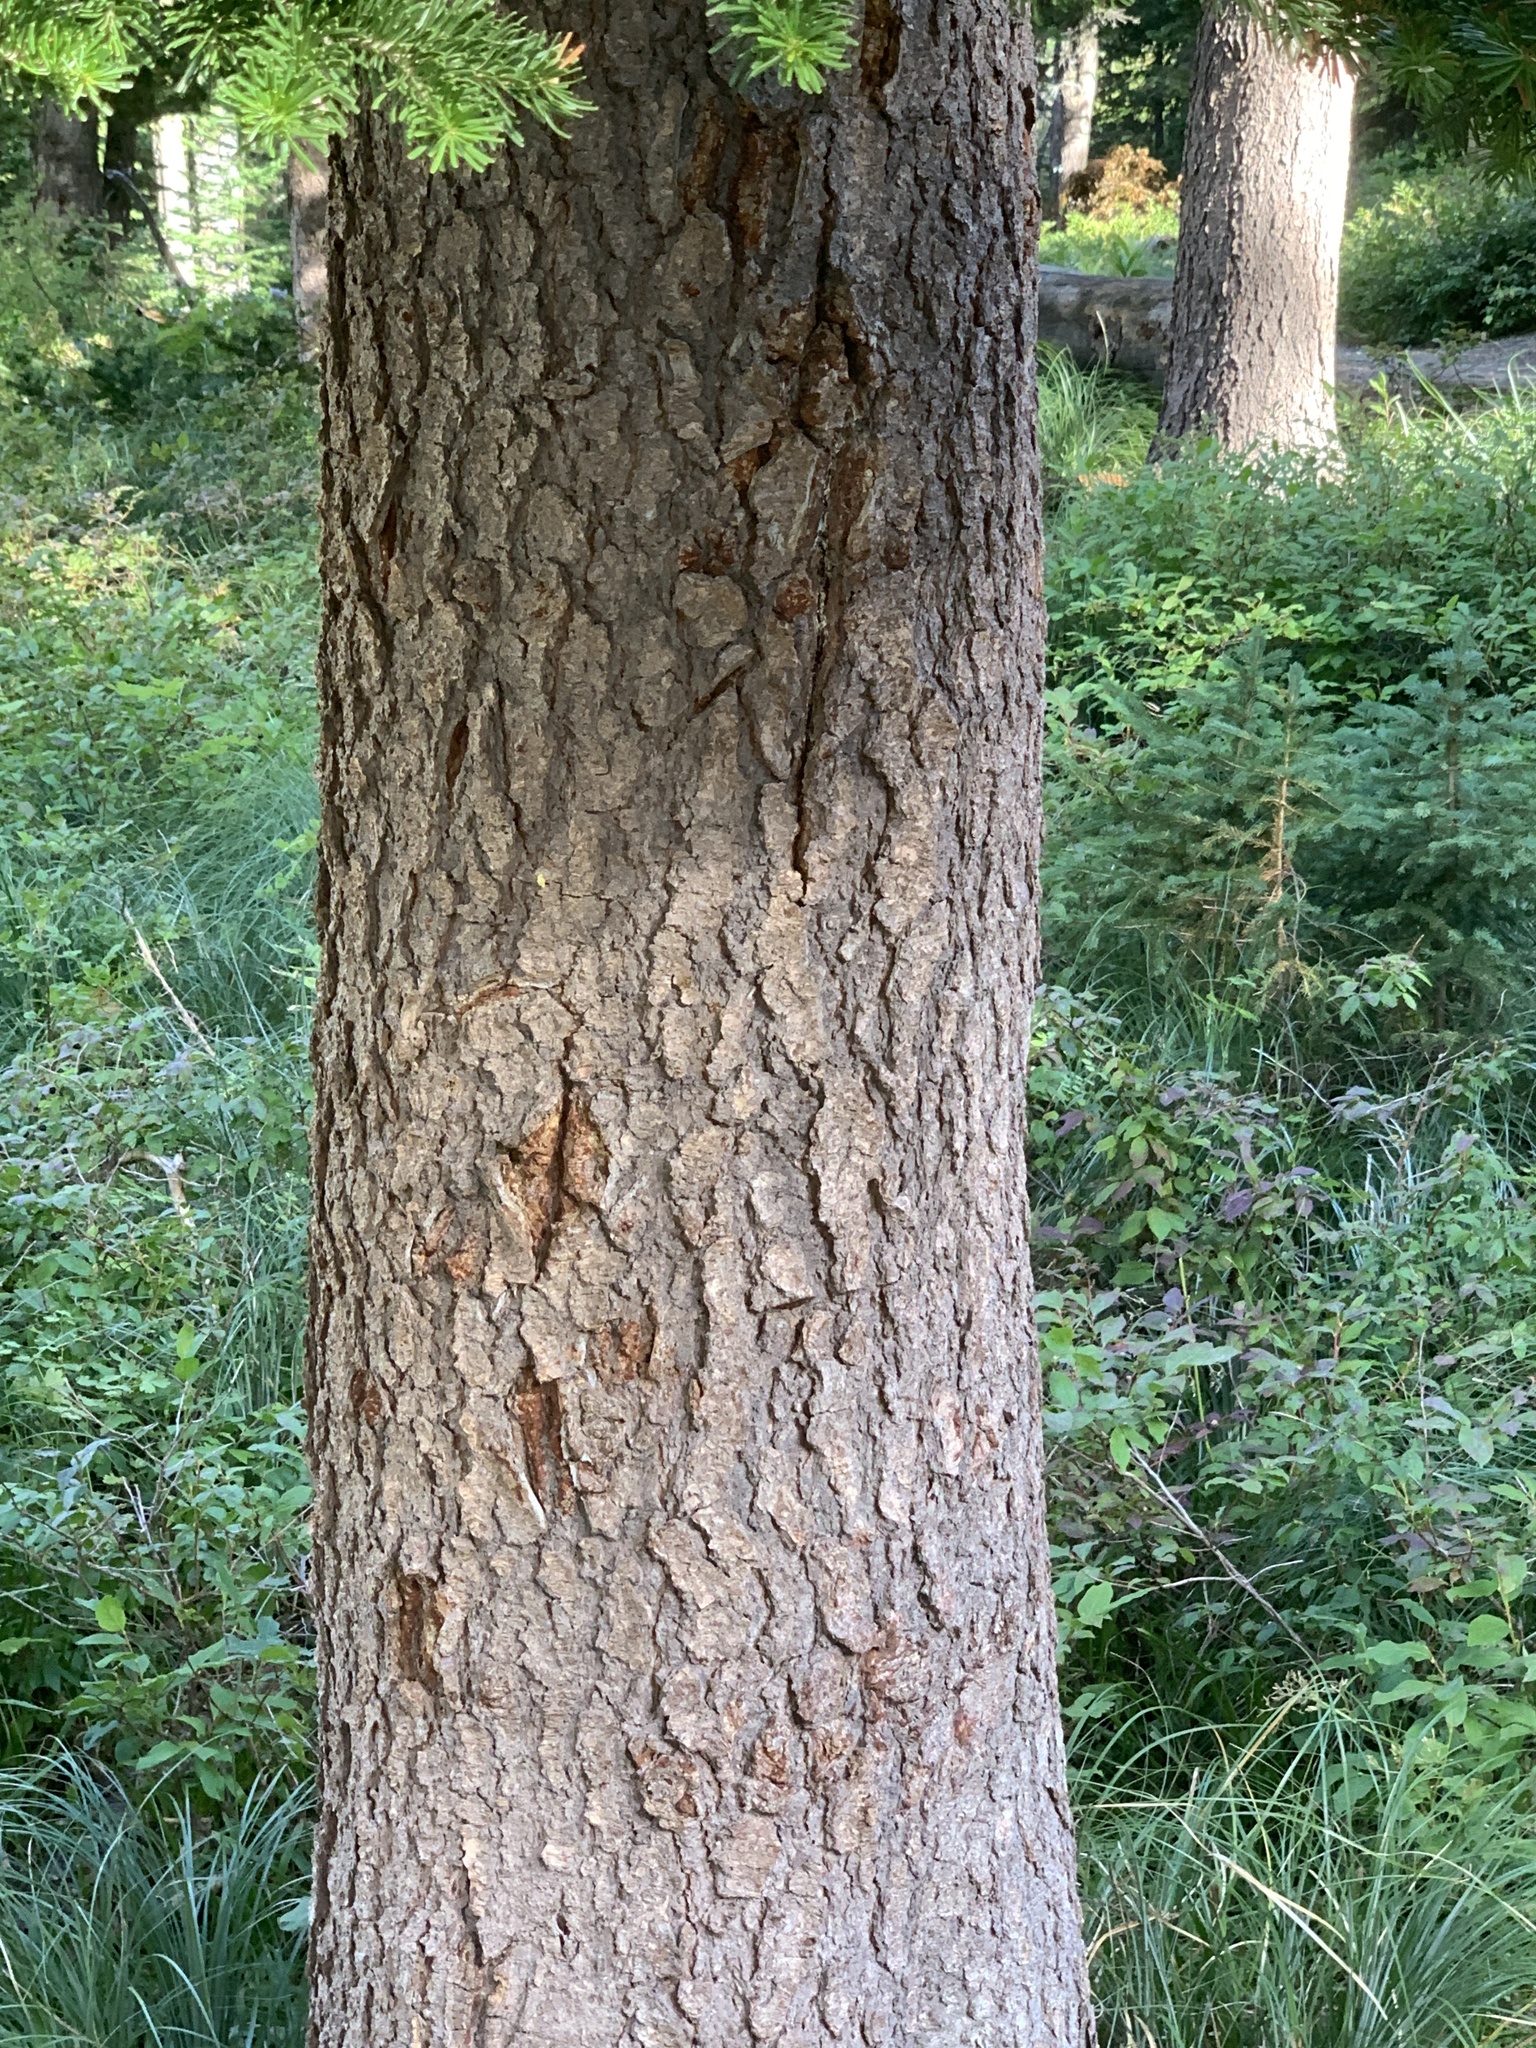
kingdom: Plantae
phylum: Tracheophyta
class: Pinopsida
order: Pinales
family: Pinaceae
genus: Abies
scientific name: Abies lasiocarpa
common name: Subalpine fir
